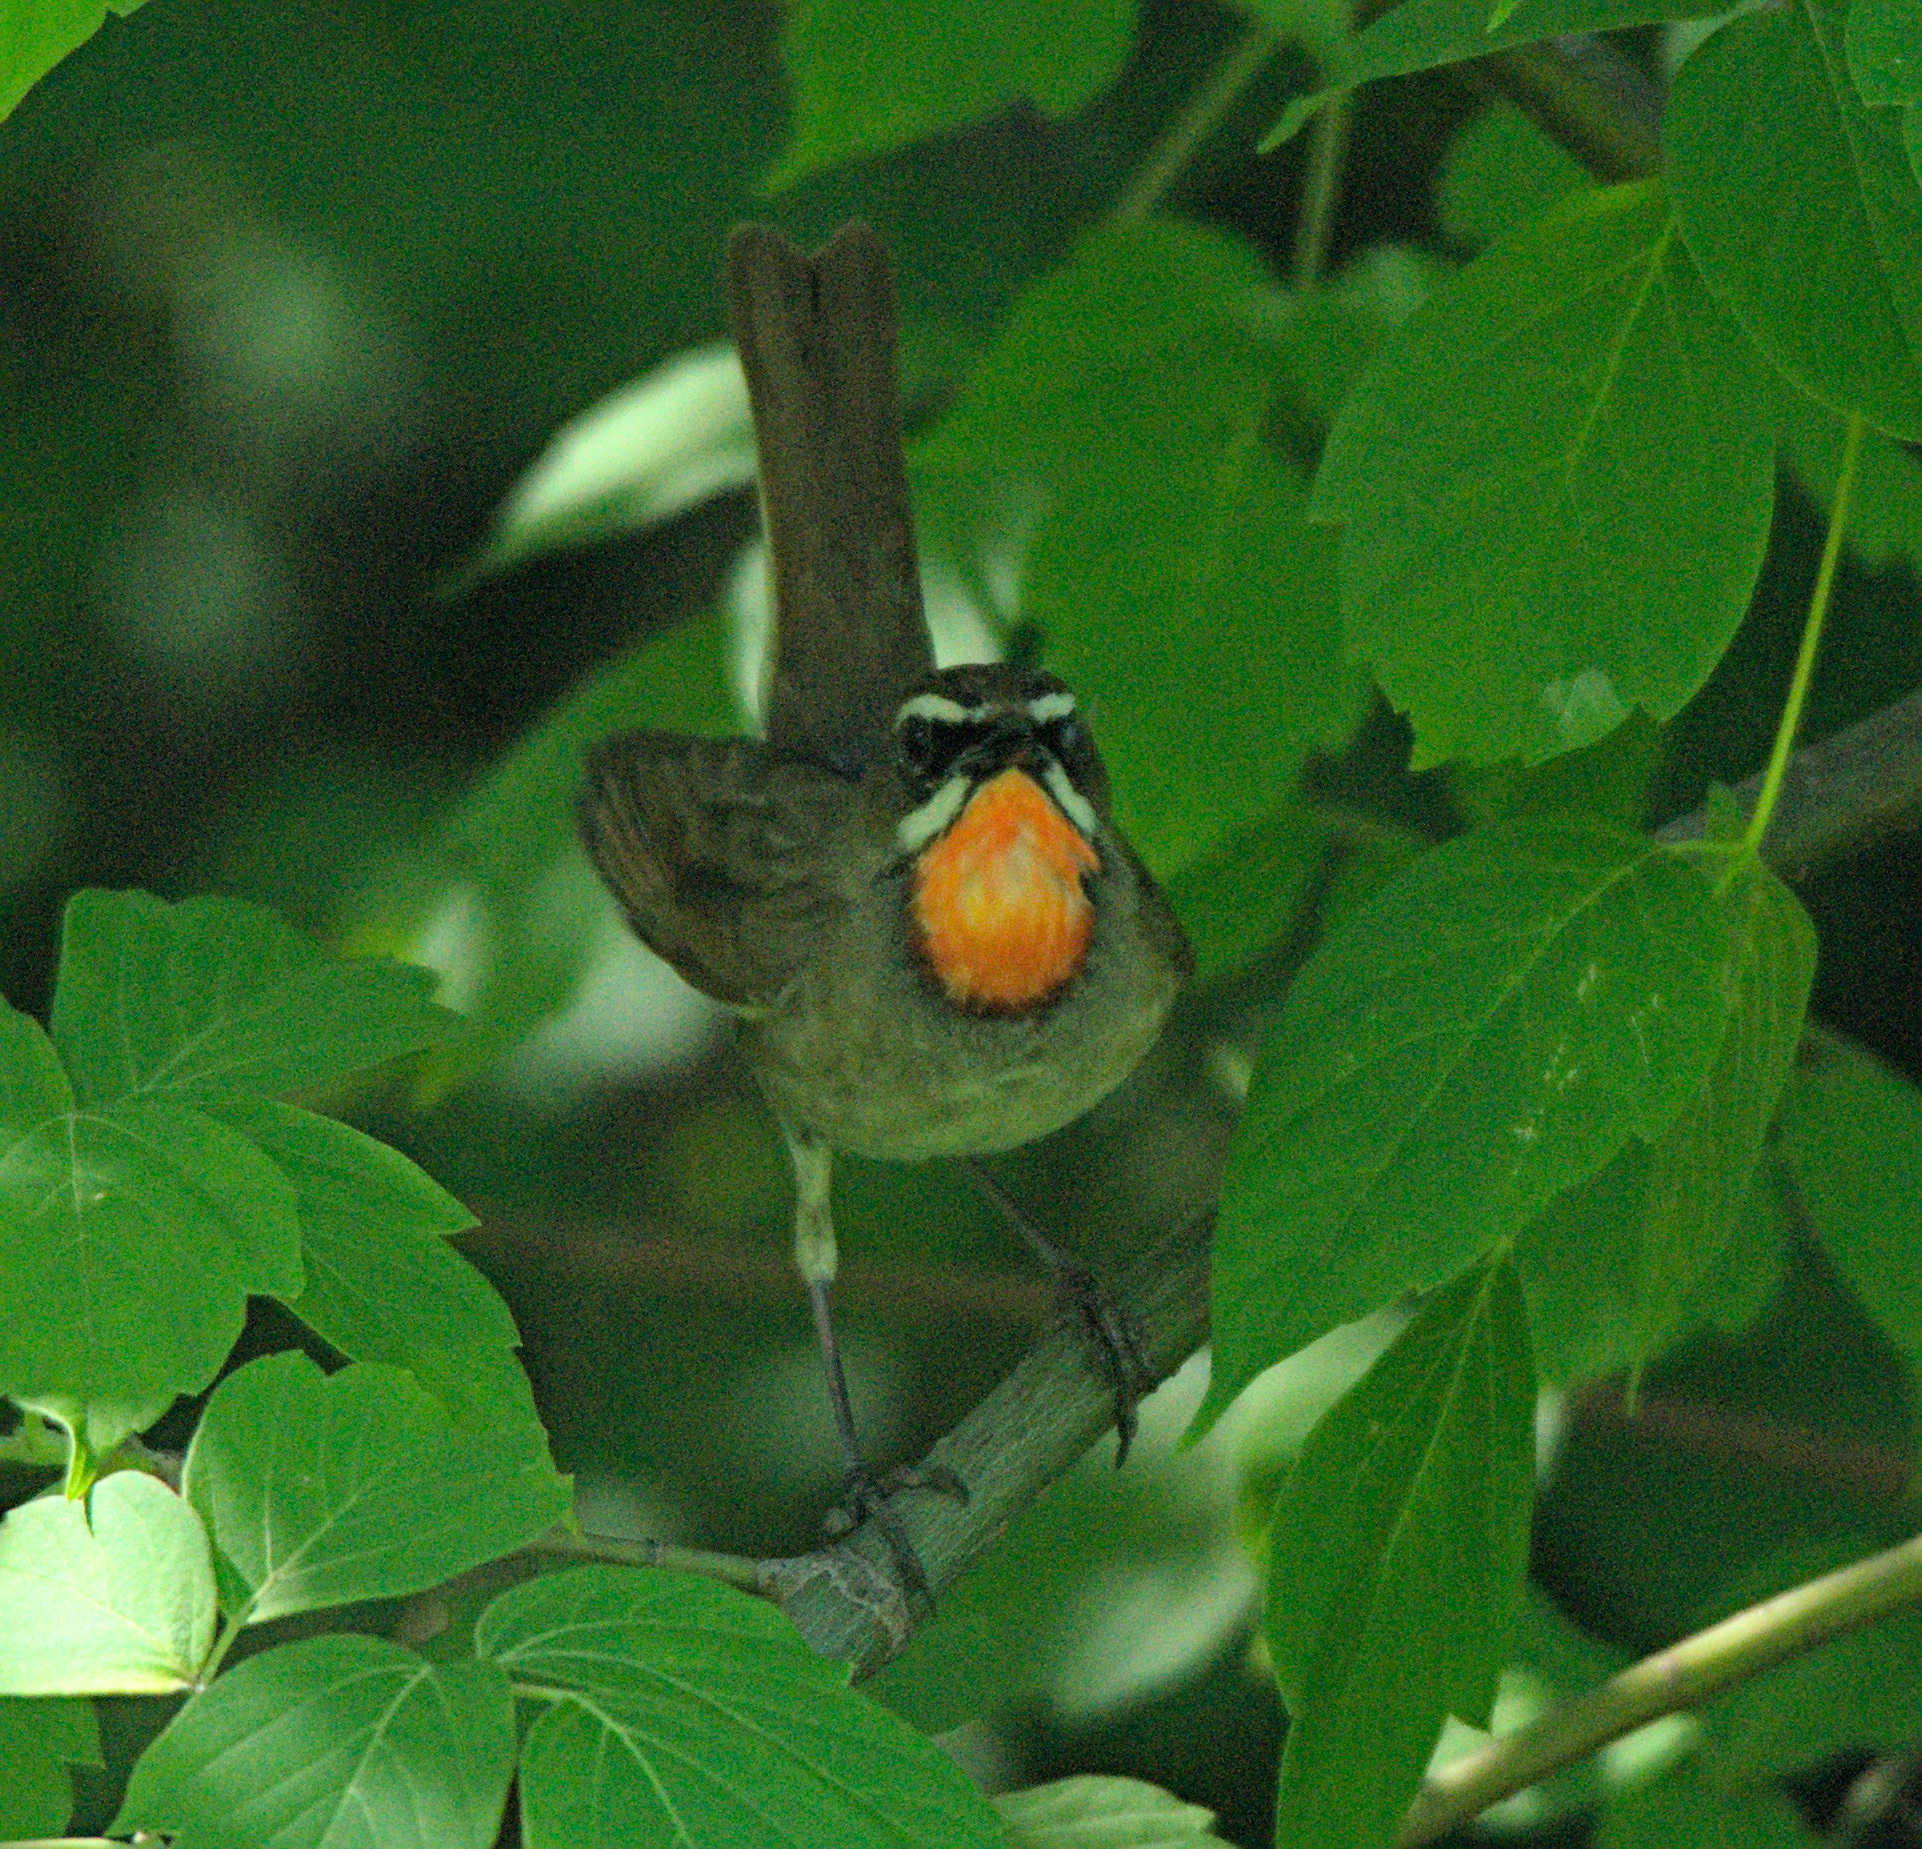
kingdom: Animalia
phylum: Chordata
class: Aves
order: Passeriformes
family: Muscicapidae
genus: Luscinia
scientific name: Luscinia calliope
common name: Siberian rubythroat
